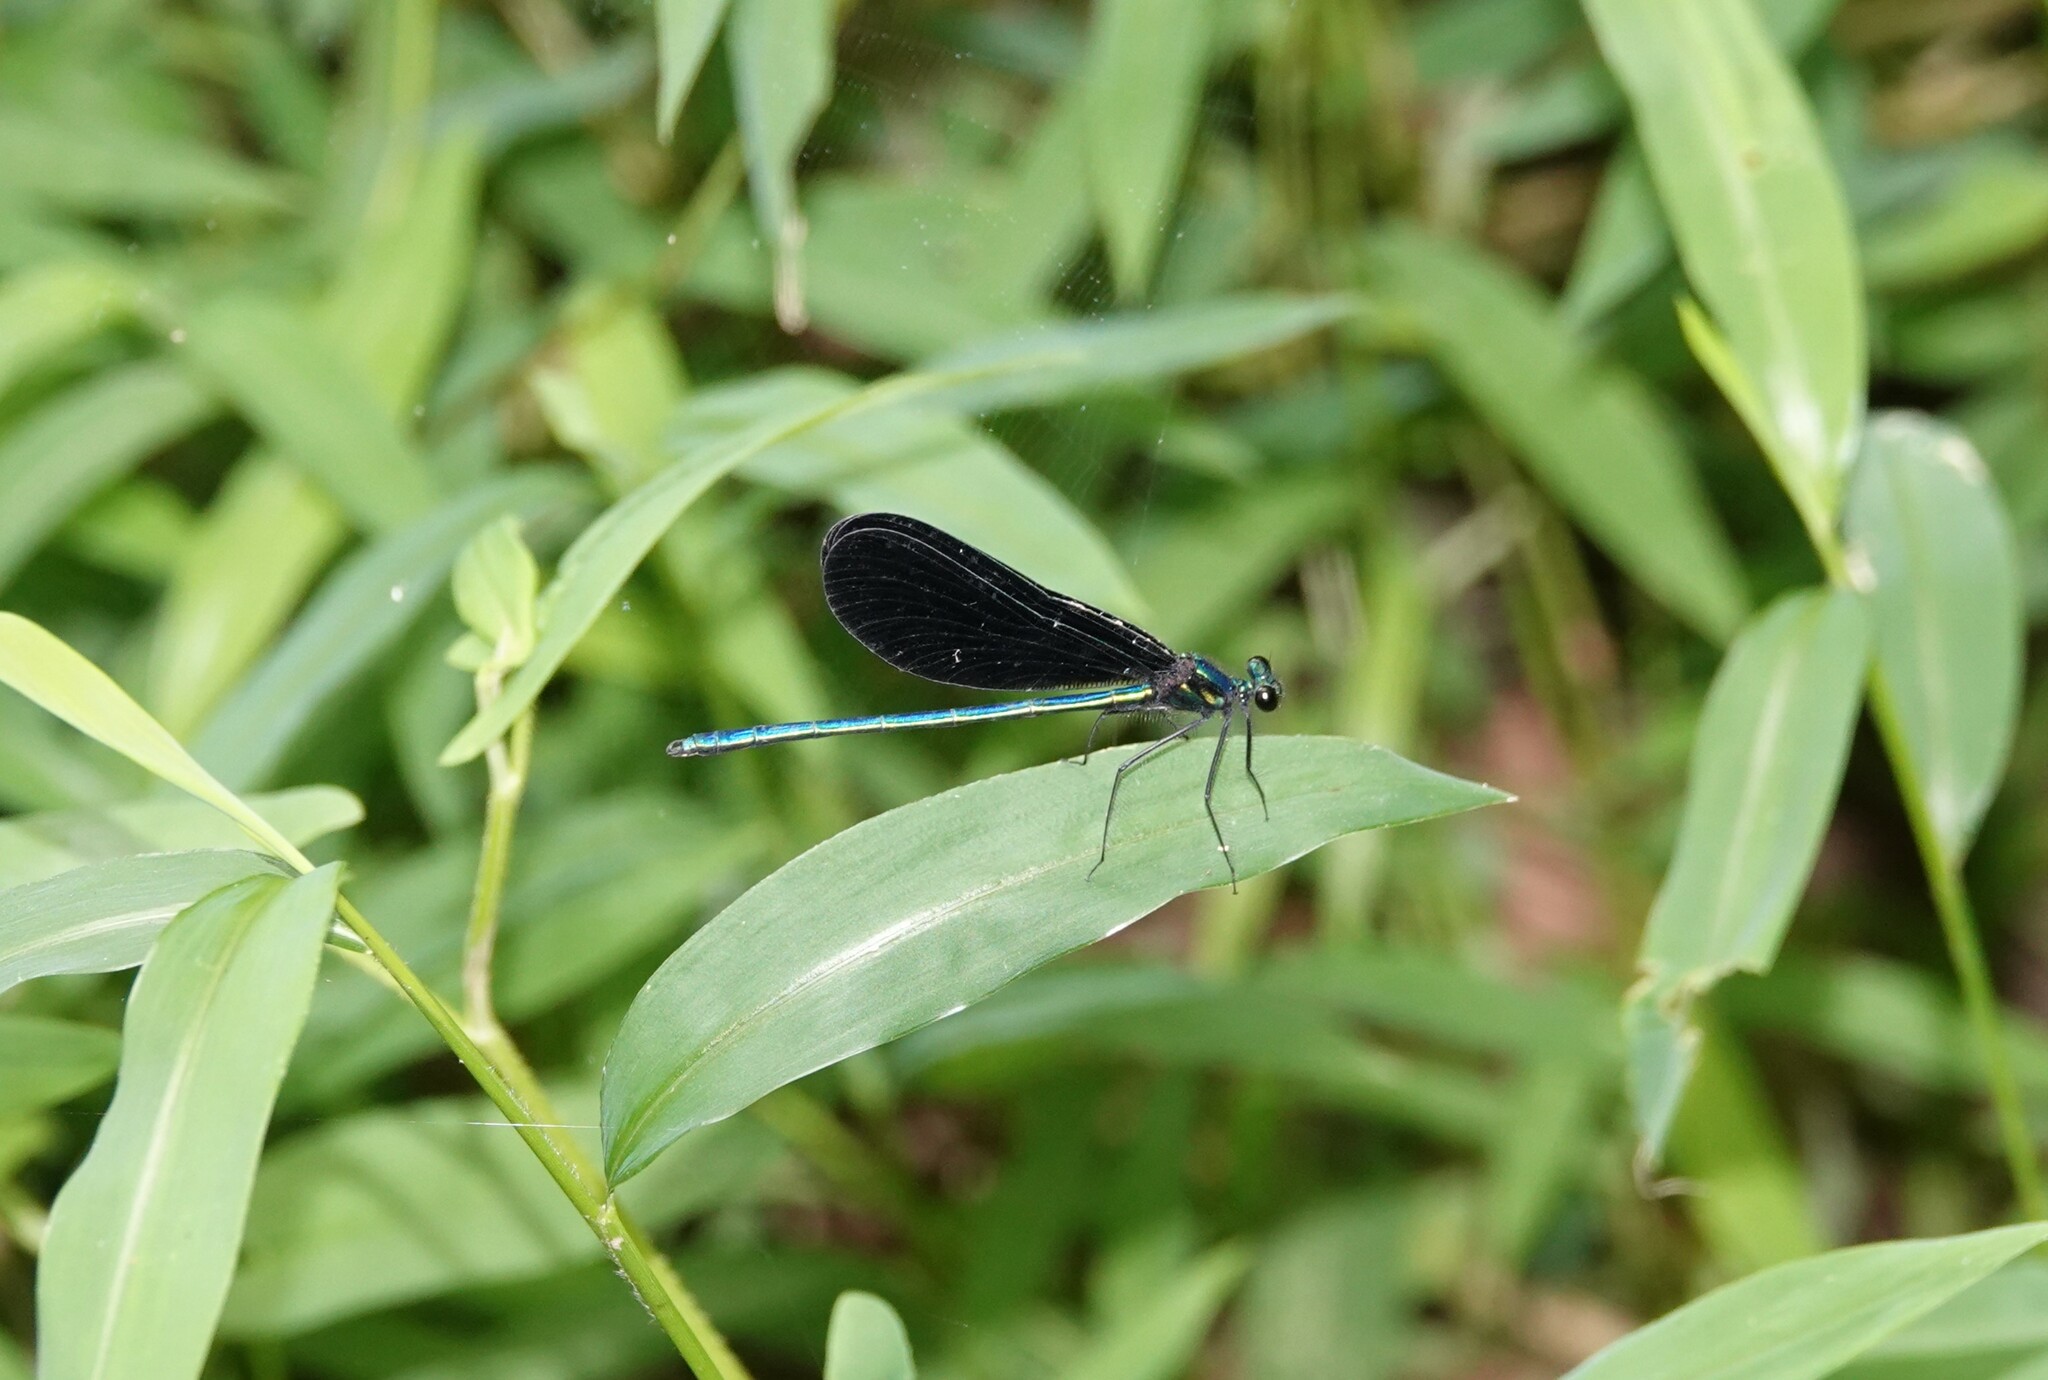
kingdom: Animalia
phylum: Arthropoda
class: Insecta
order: Odonata
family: Calopterygidae
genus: Calopteryx
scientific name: Calopteryx maculata
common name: Ebony jewelwing
